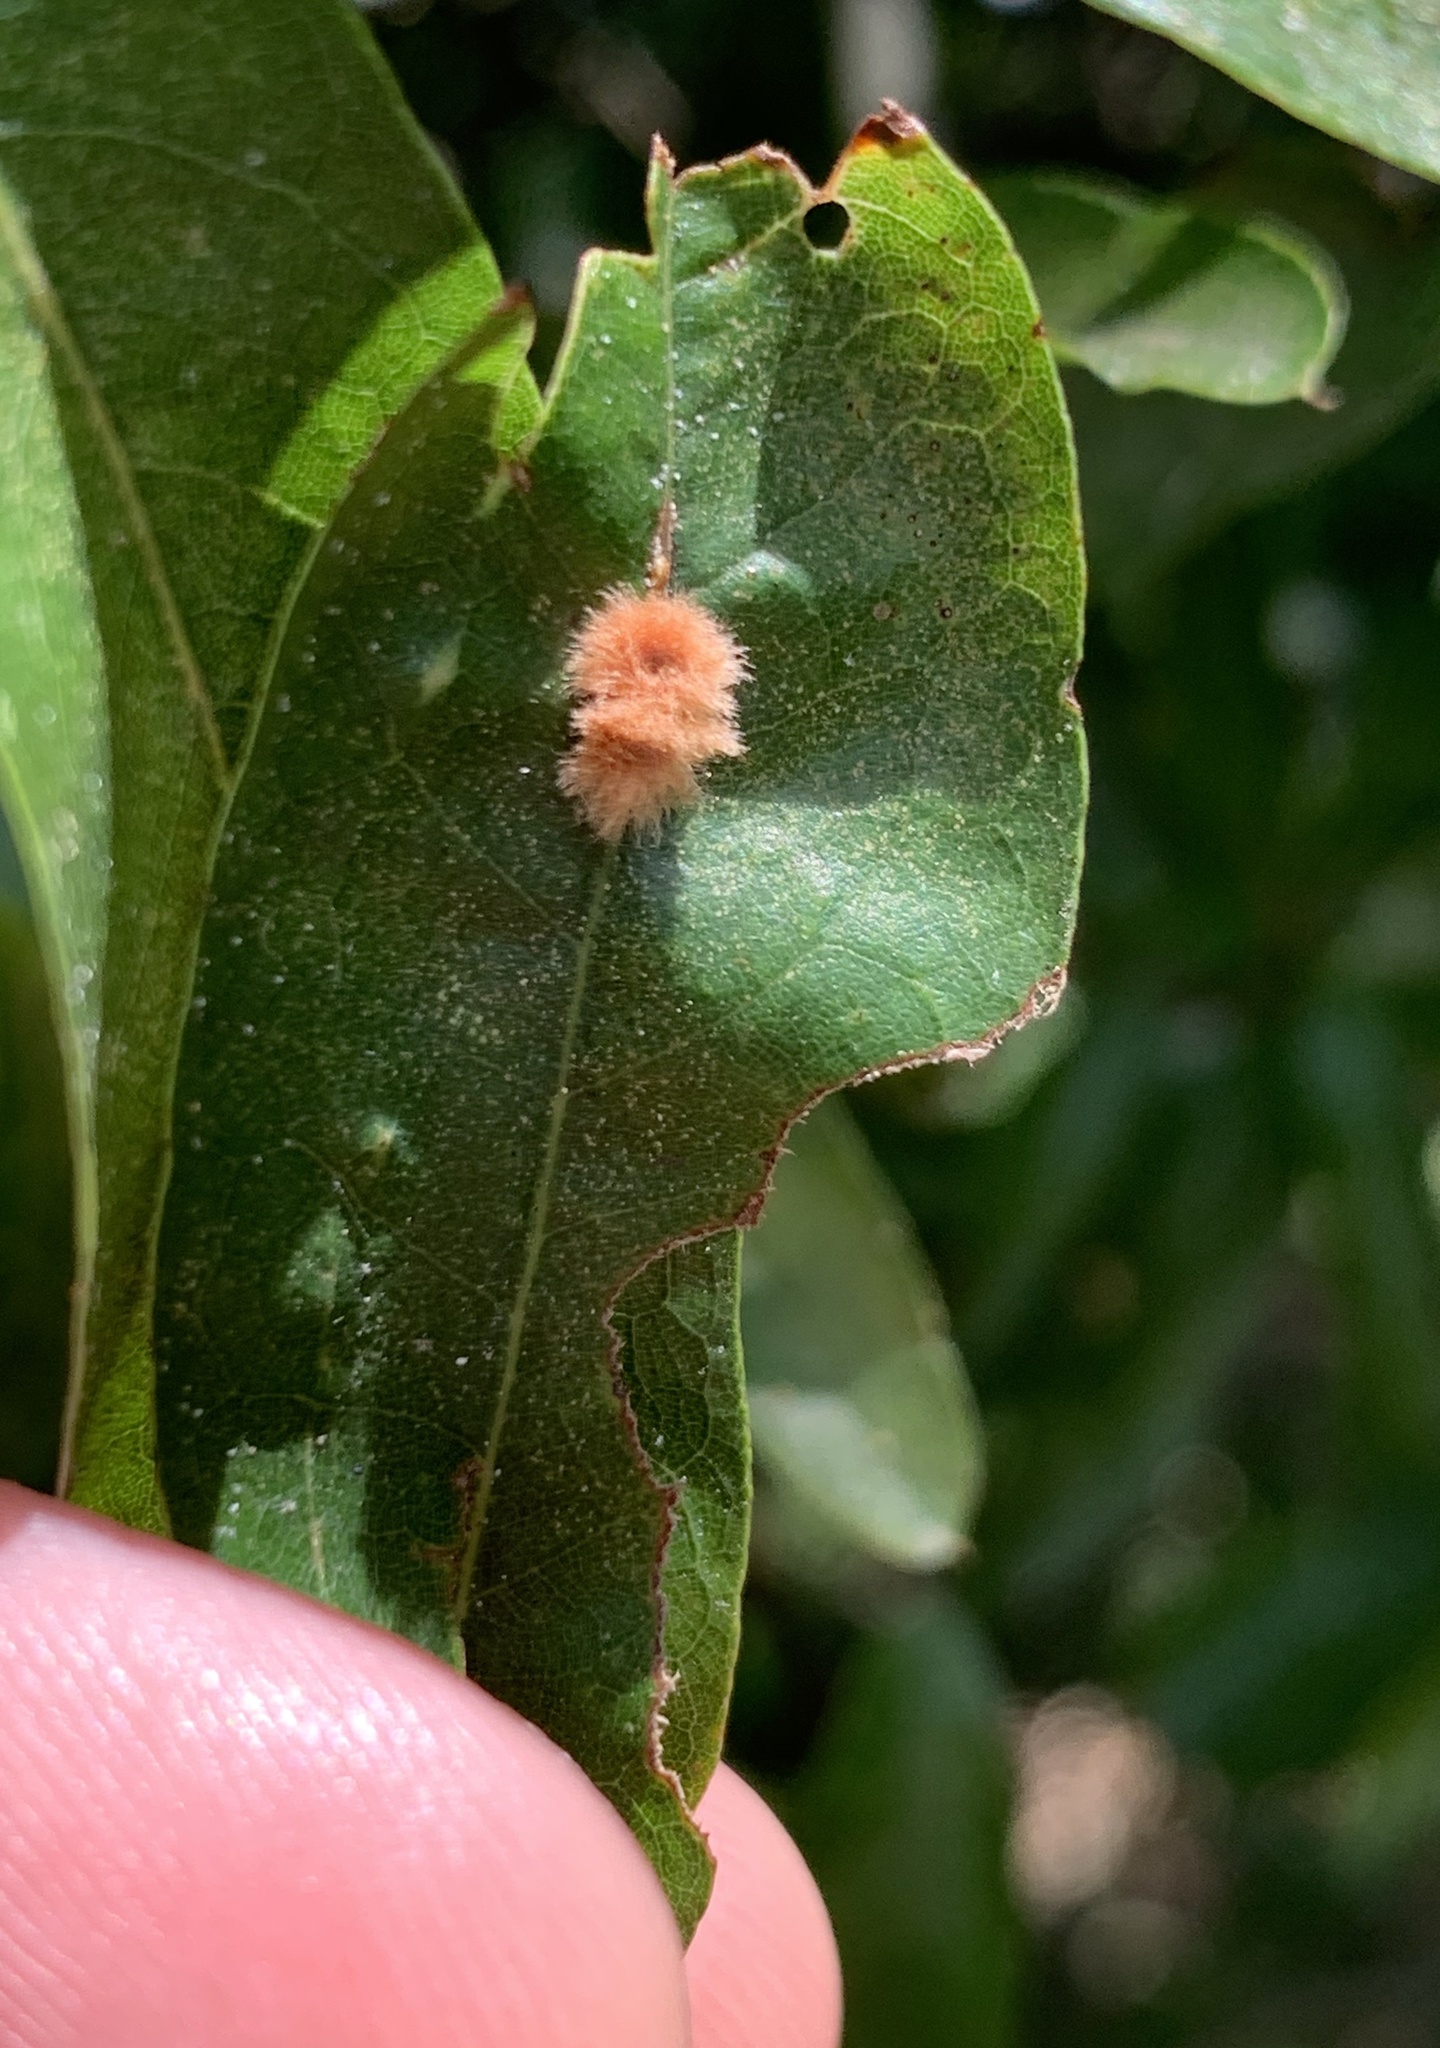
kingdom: Animalia
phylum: Arthropoda
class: Insecta
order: Hymenoptera
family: Cynipidae
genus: Callirhytis
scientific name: Callirhytis
